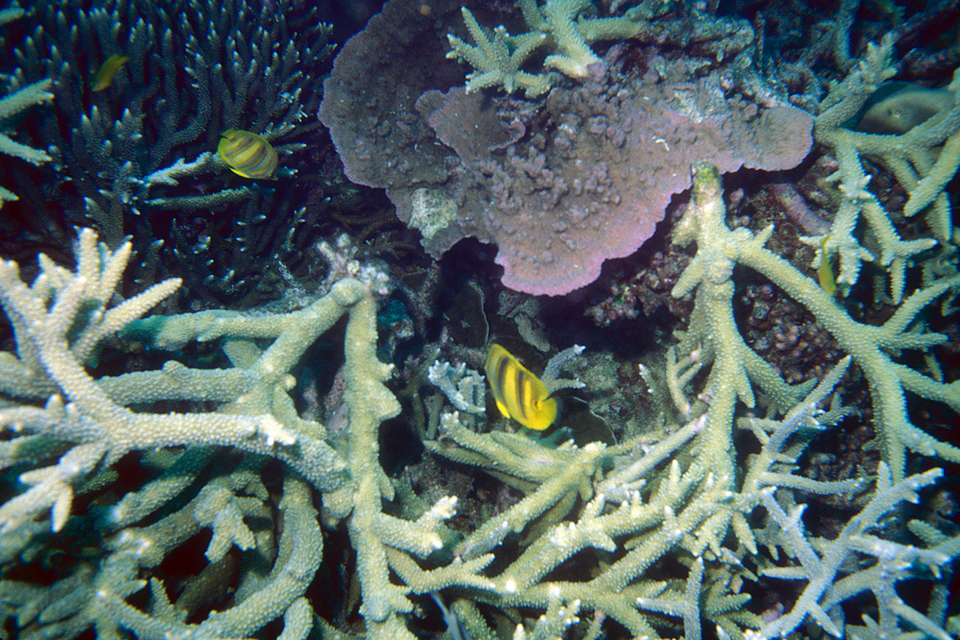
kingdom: Animalia
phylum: Chordata
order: Perciformes
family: Chaetodontidae
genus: Chaetodon
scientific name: Chaetodon rainfordi
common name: Rainford's butterflyfish
